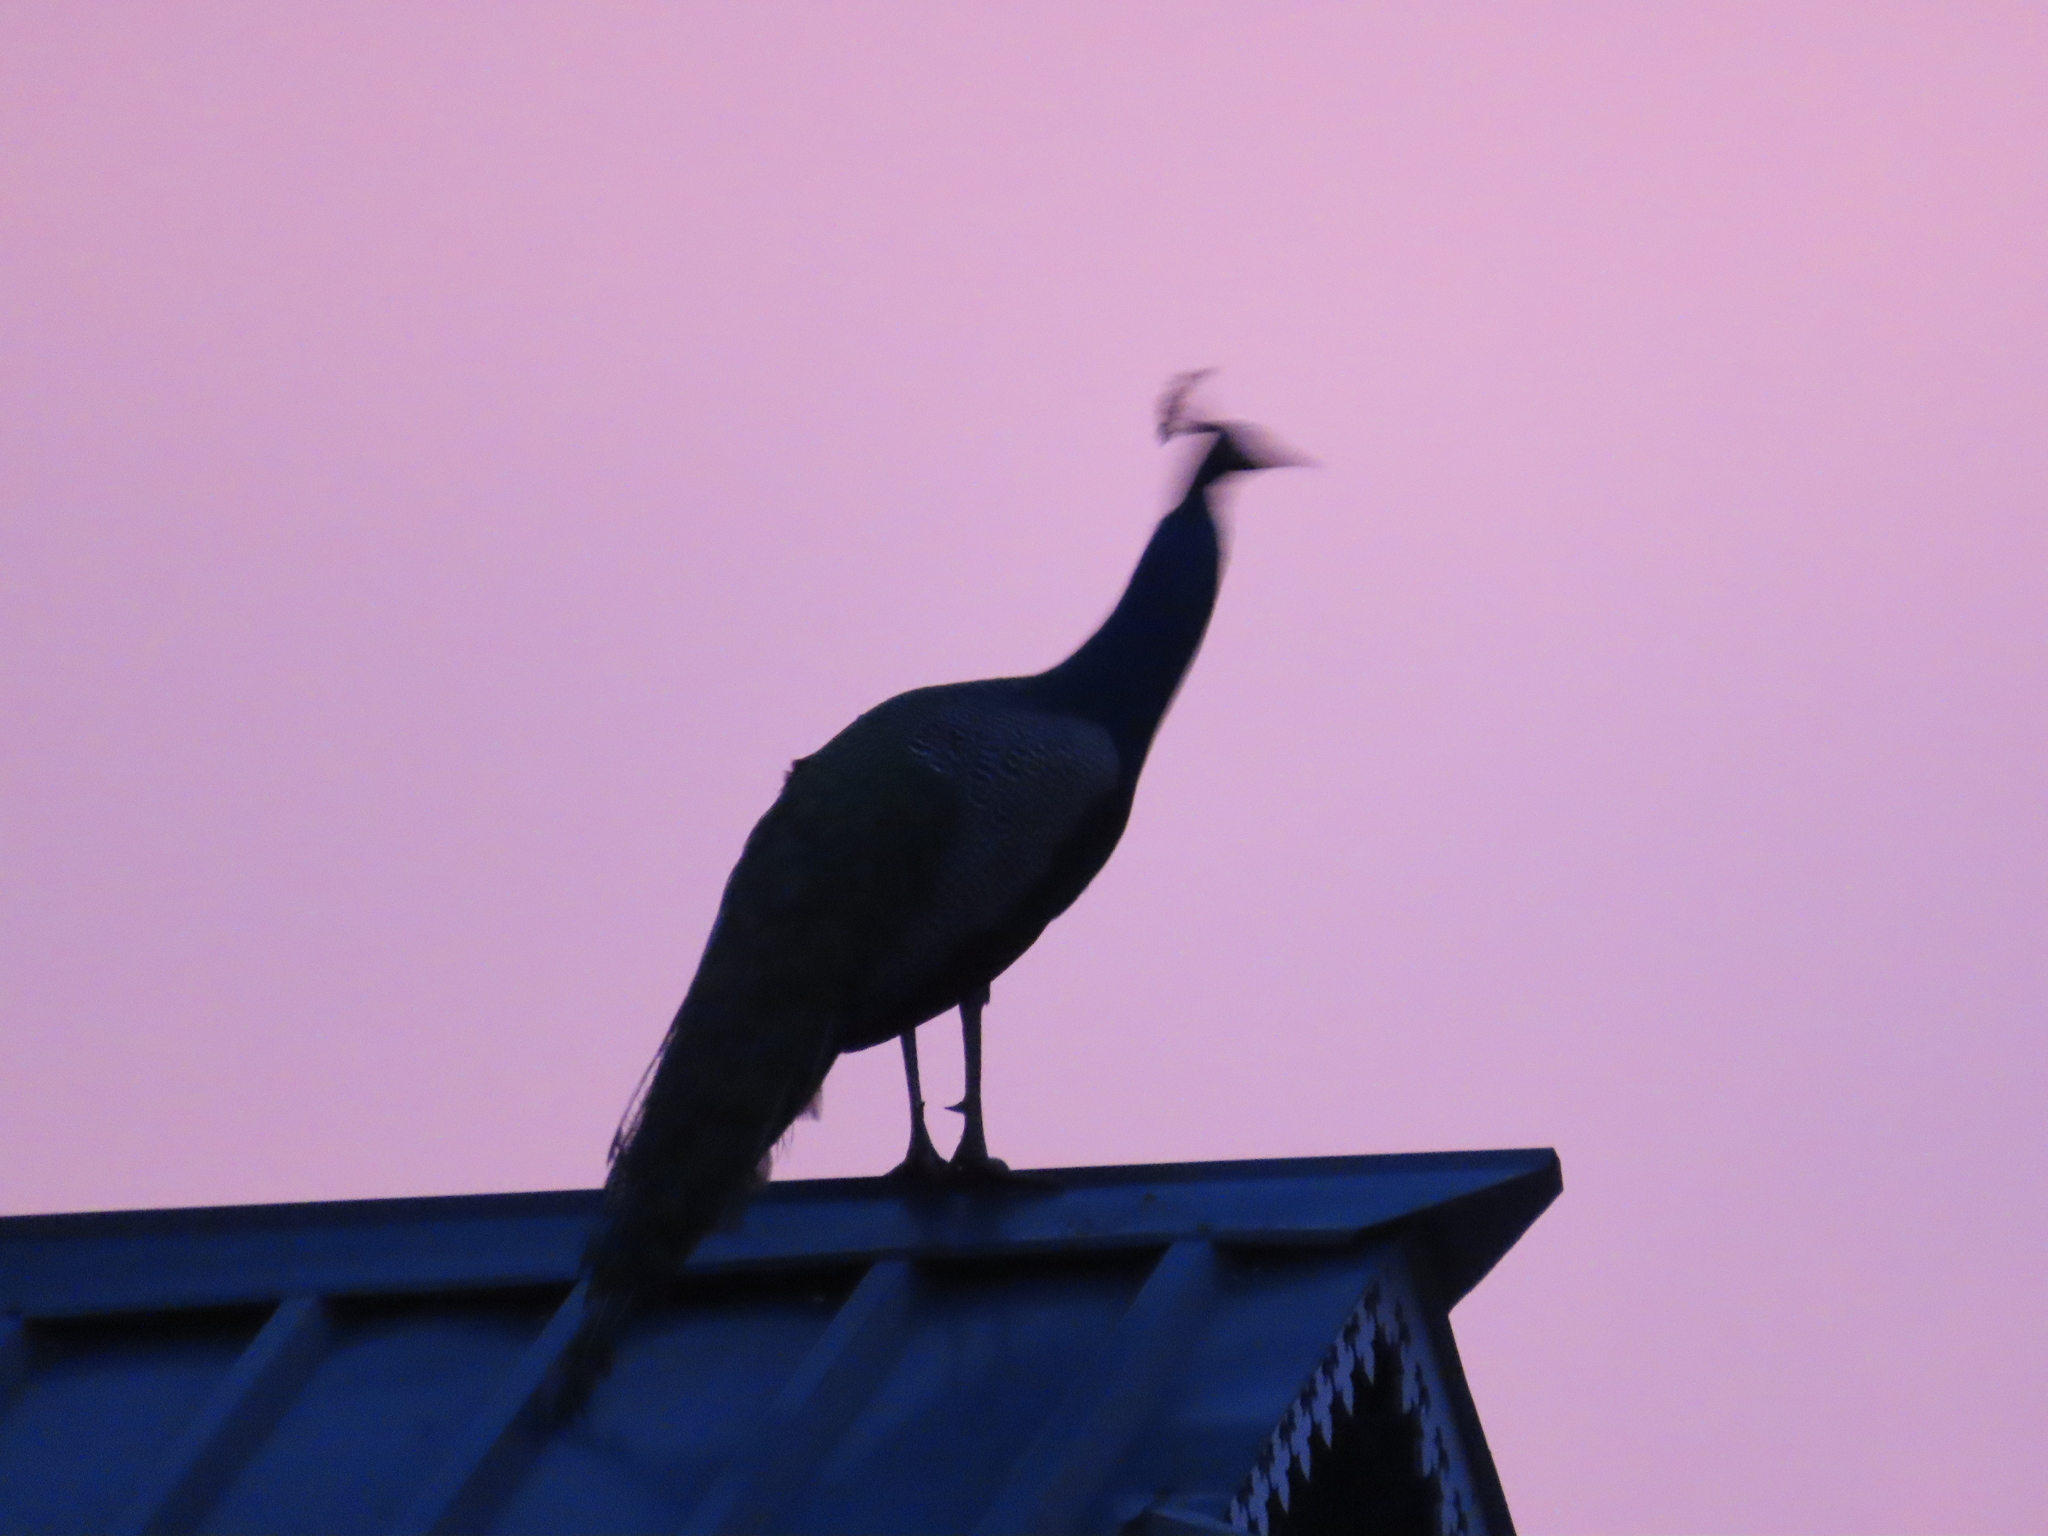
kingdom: Animalia
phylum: Chordata
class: Aves
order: Galliformes
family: Phasianidae
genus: Pavo
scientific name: Pavo cristatus
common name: Indian peafowl
